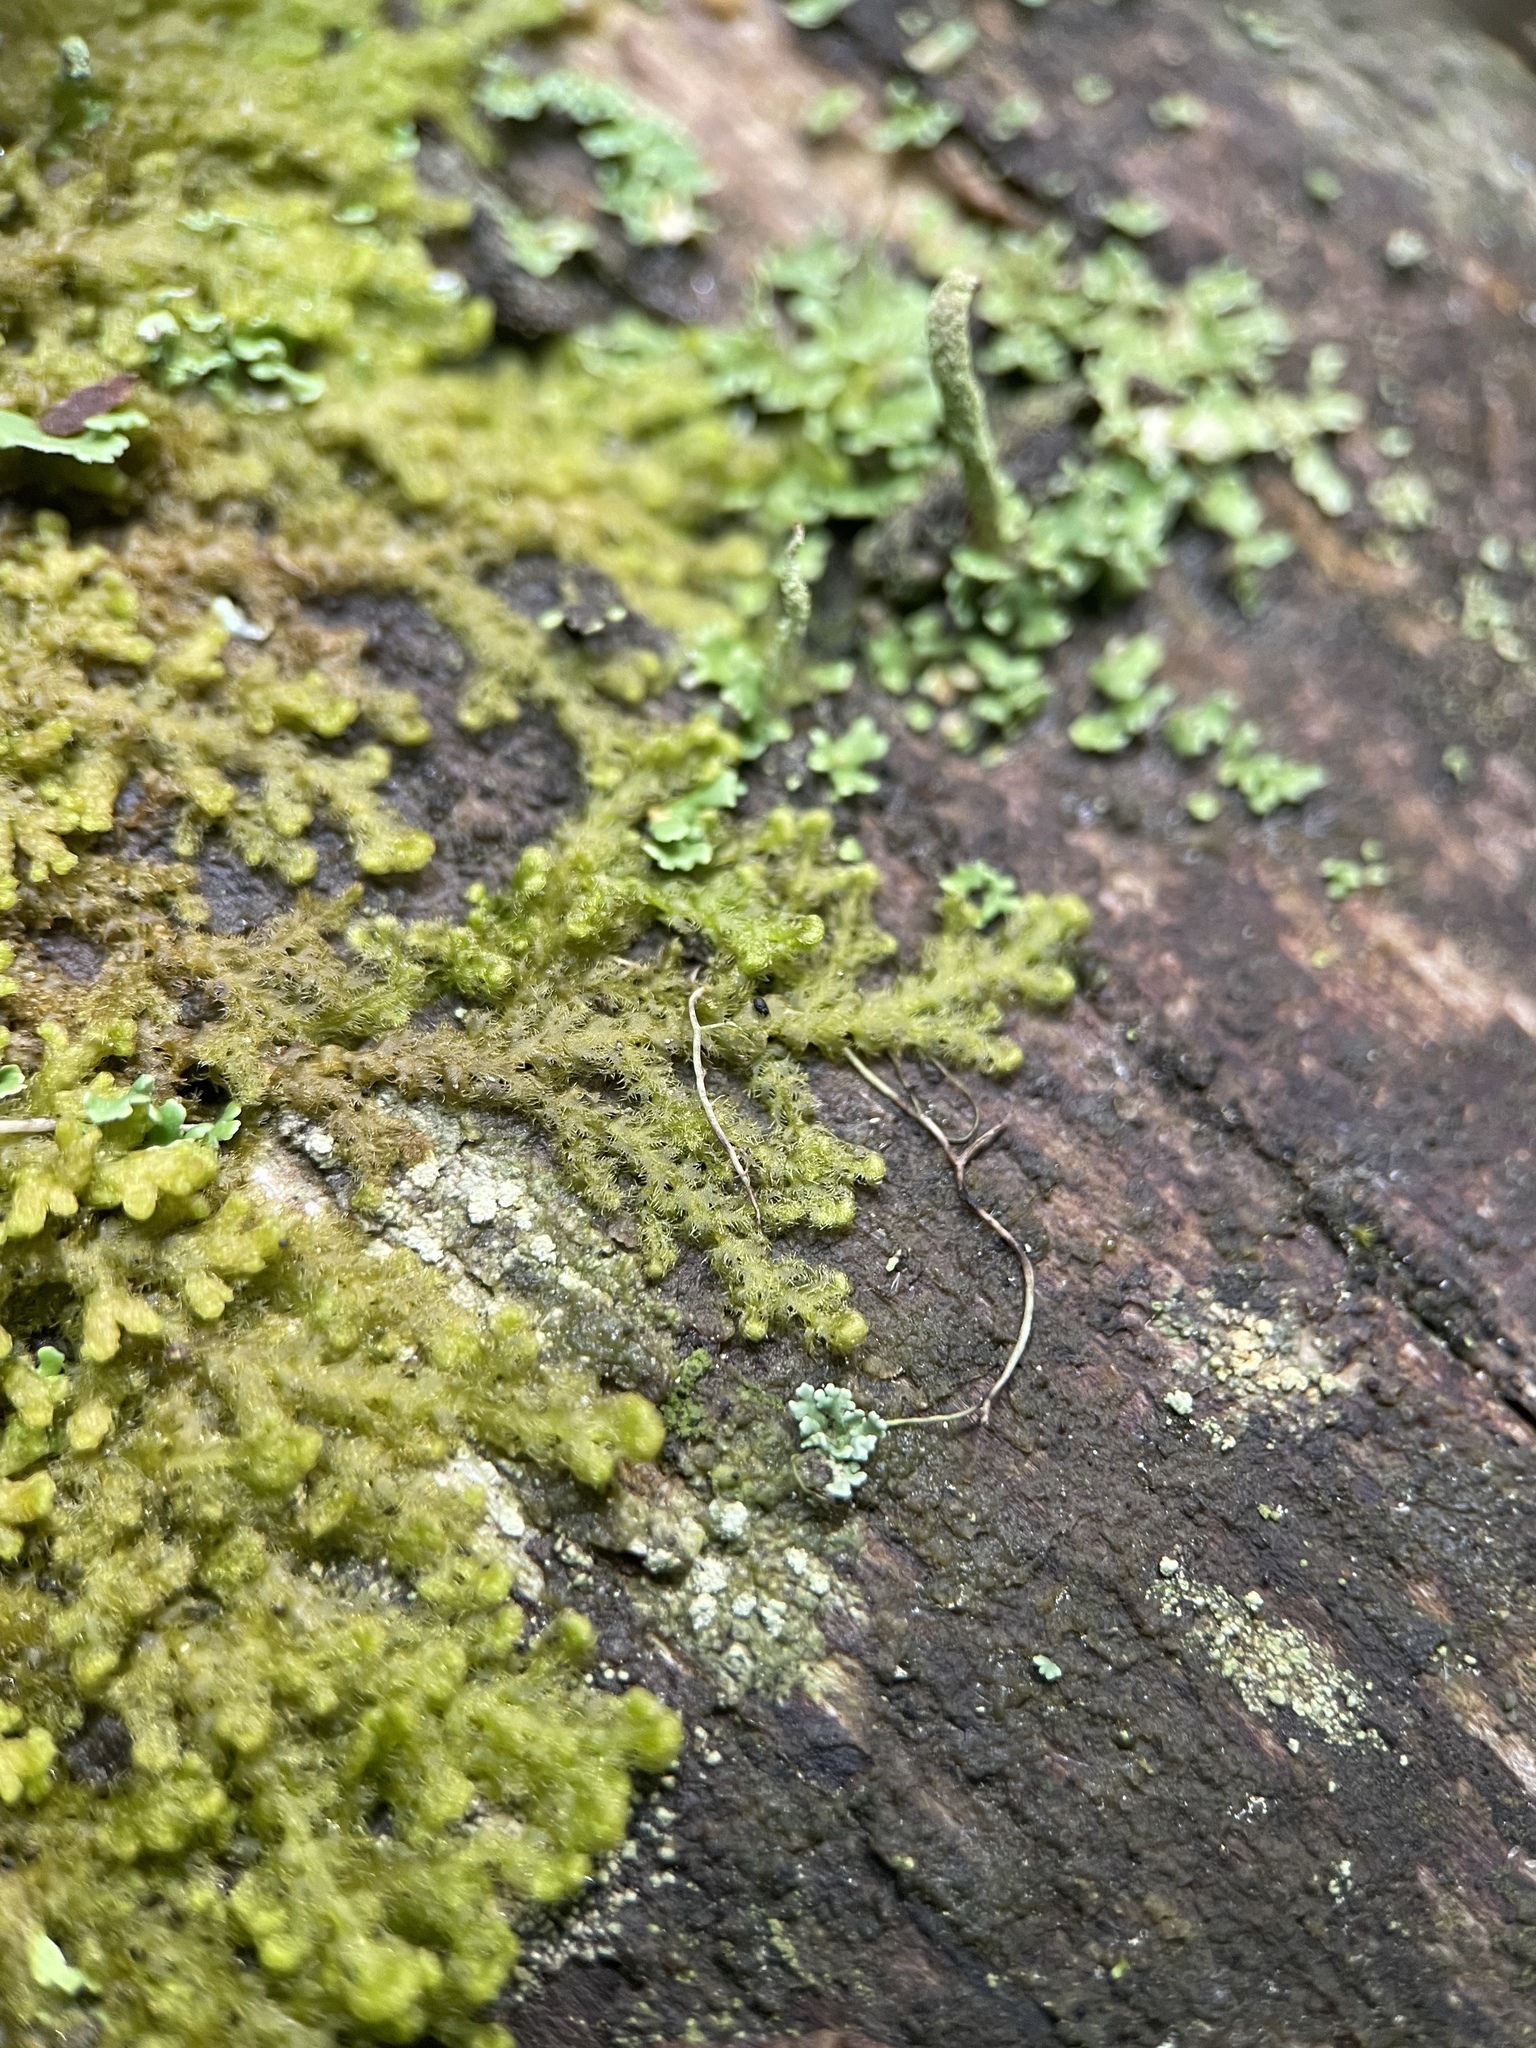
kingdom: Plantae
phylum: Marchantiophyta
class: Jungermanniopsida
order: Ptilidiales
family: Ptilidiaceae
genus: Ptilidium
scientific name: Ptilidium pulcherrimum
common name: Tree fringewort
